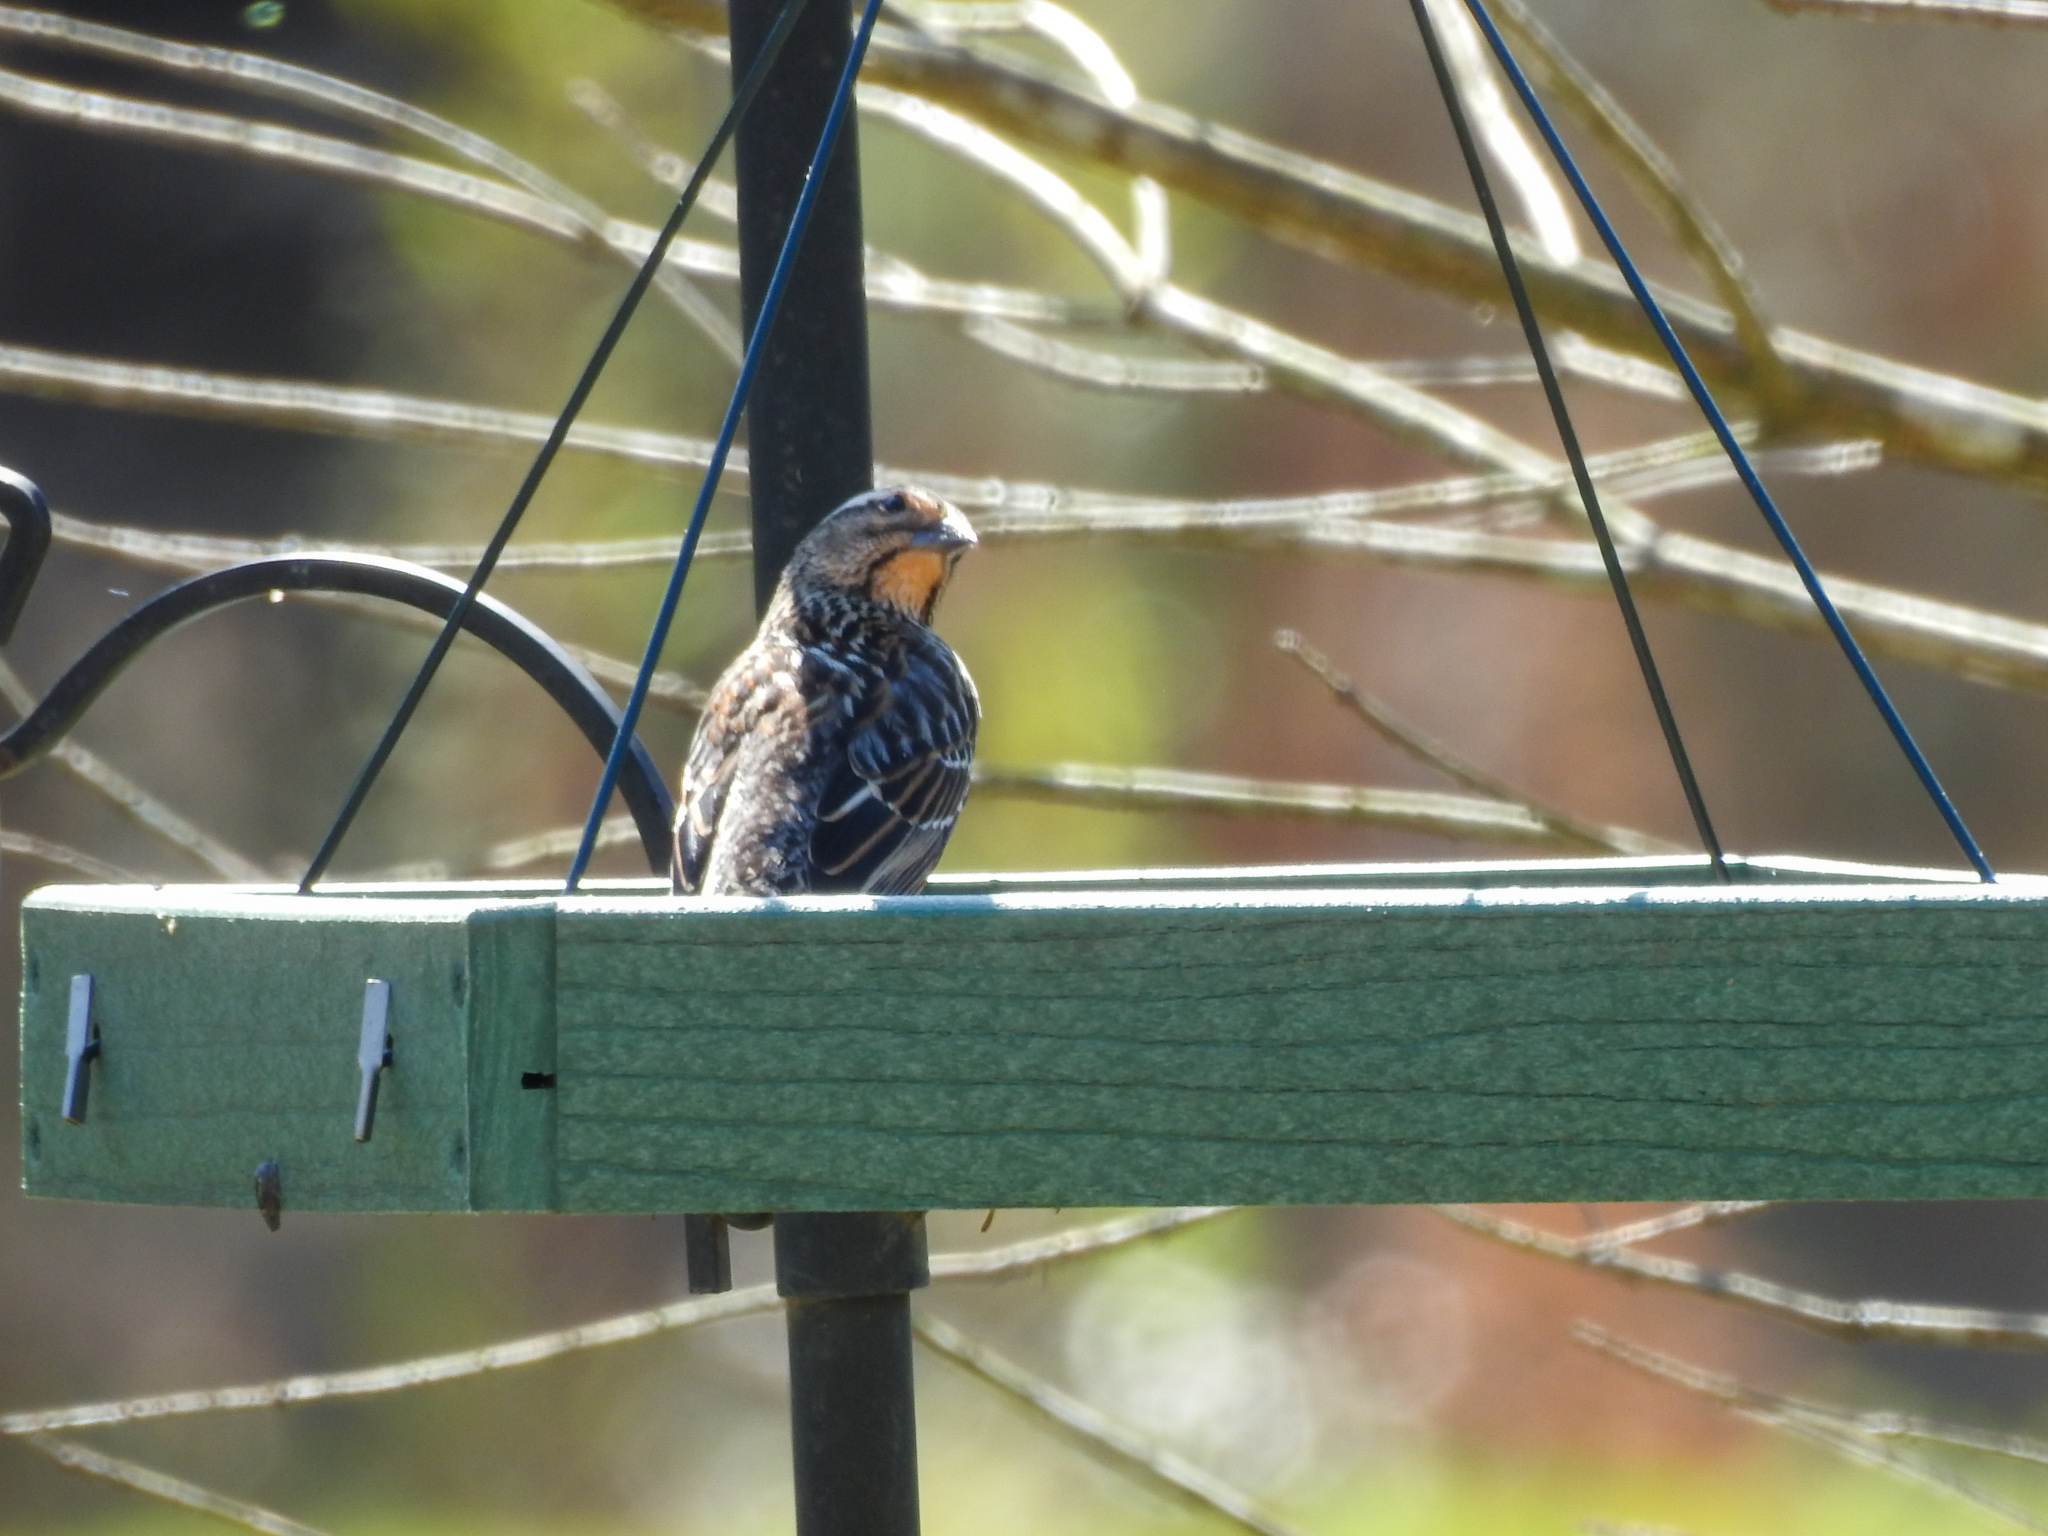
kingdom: Animalia
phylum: Chordata
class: Aves
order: Passeriformes
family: Icteridae
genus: Agelaius
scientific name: Agelaius phoeniceus
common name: Red-winged blackbird
